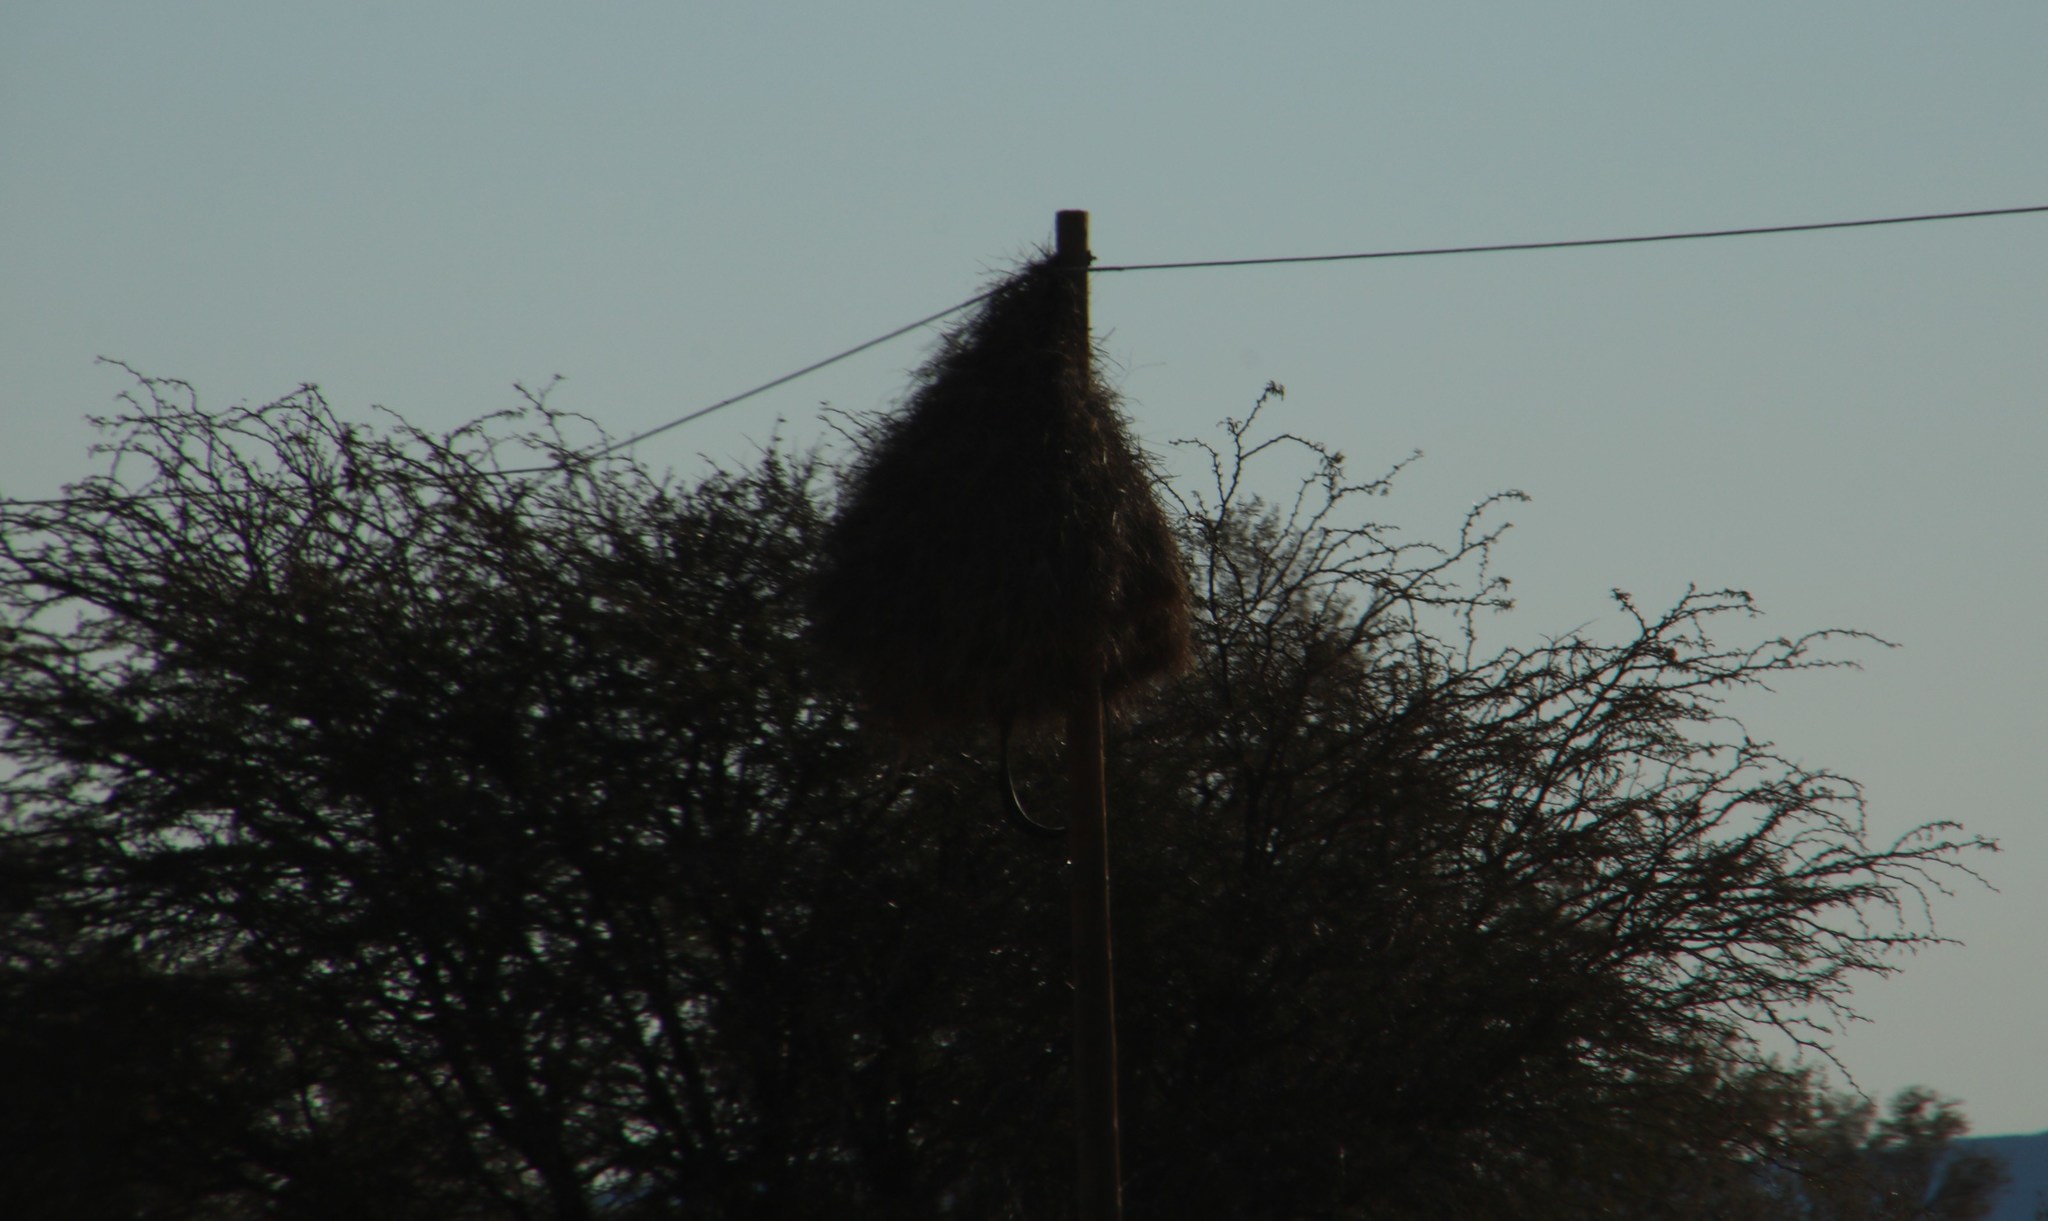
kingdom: Animalia
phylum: Chordata
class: Aves
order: Passeriformes
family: Passeridae
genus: Philetairus
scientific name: Philetairus socius
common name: Sociable weaver
